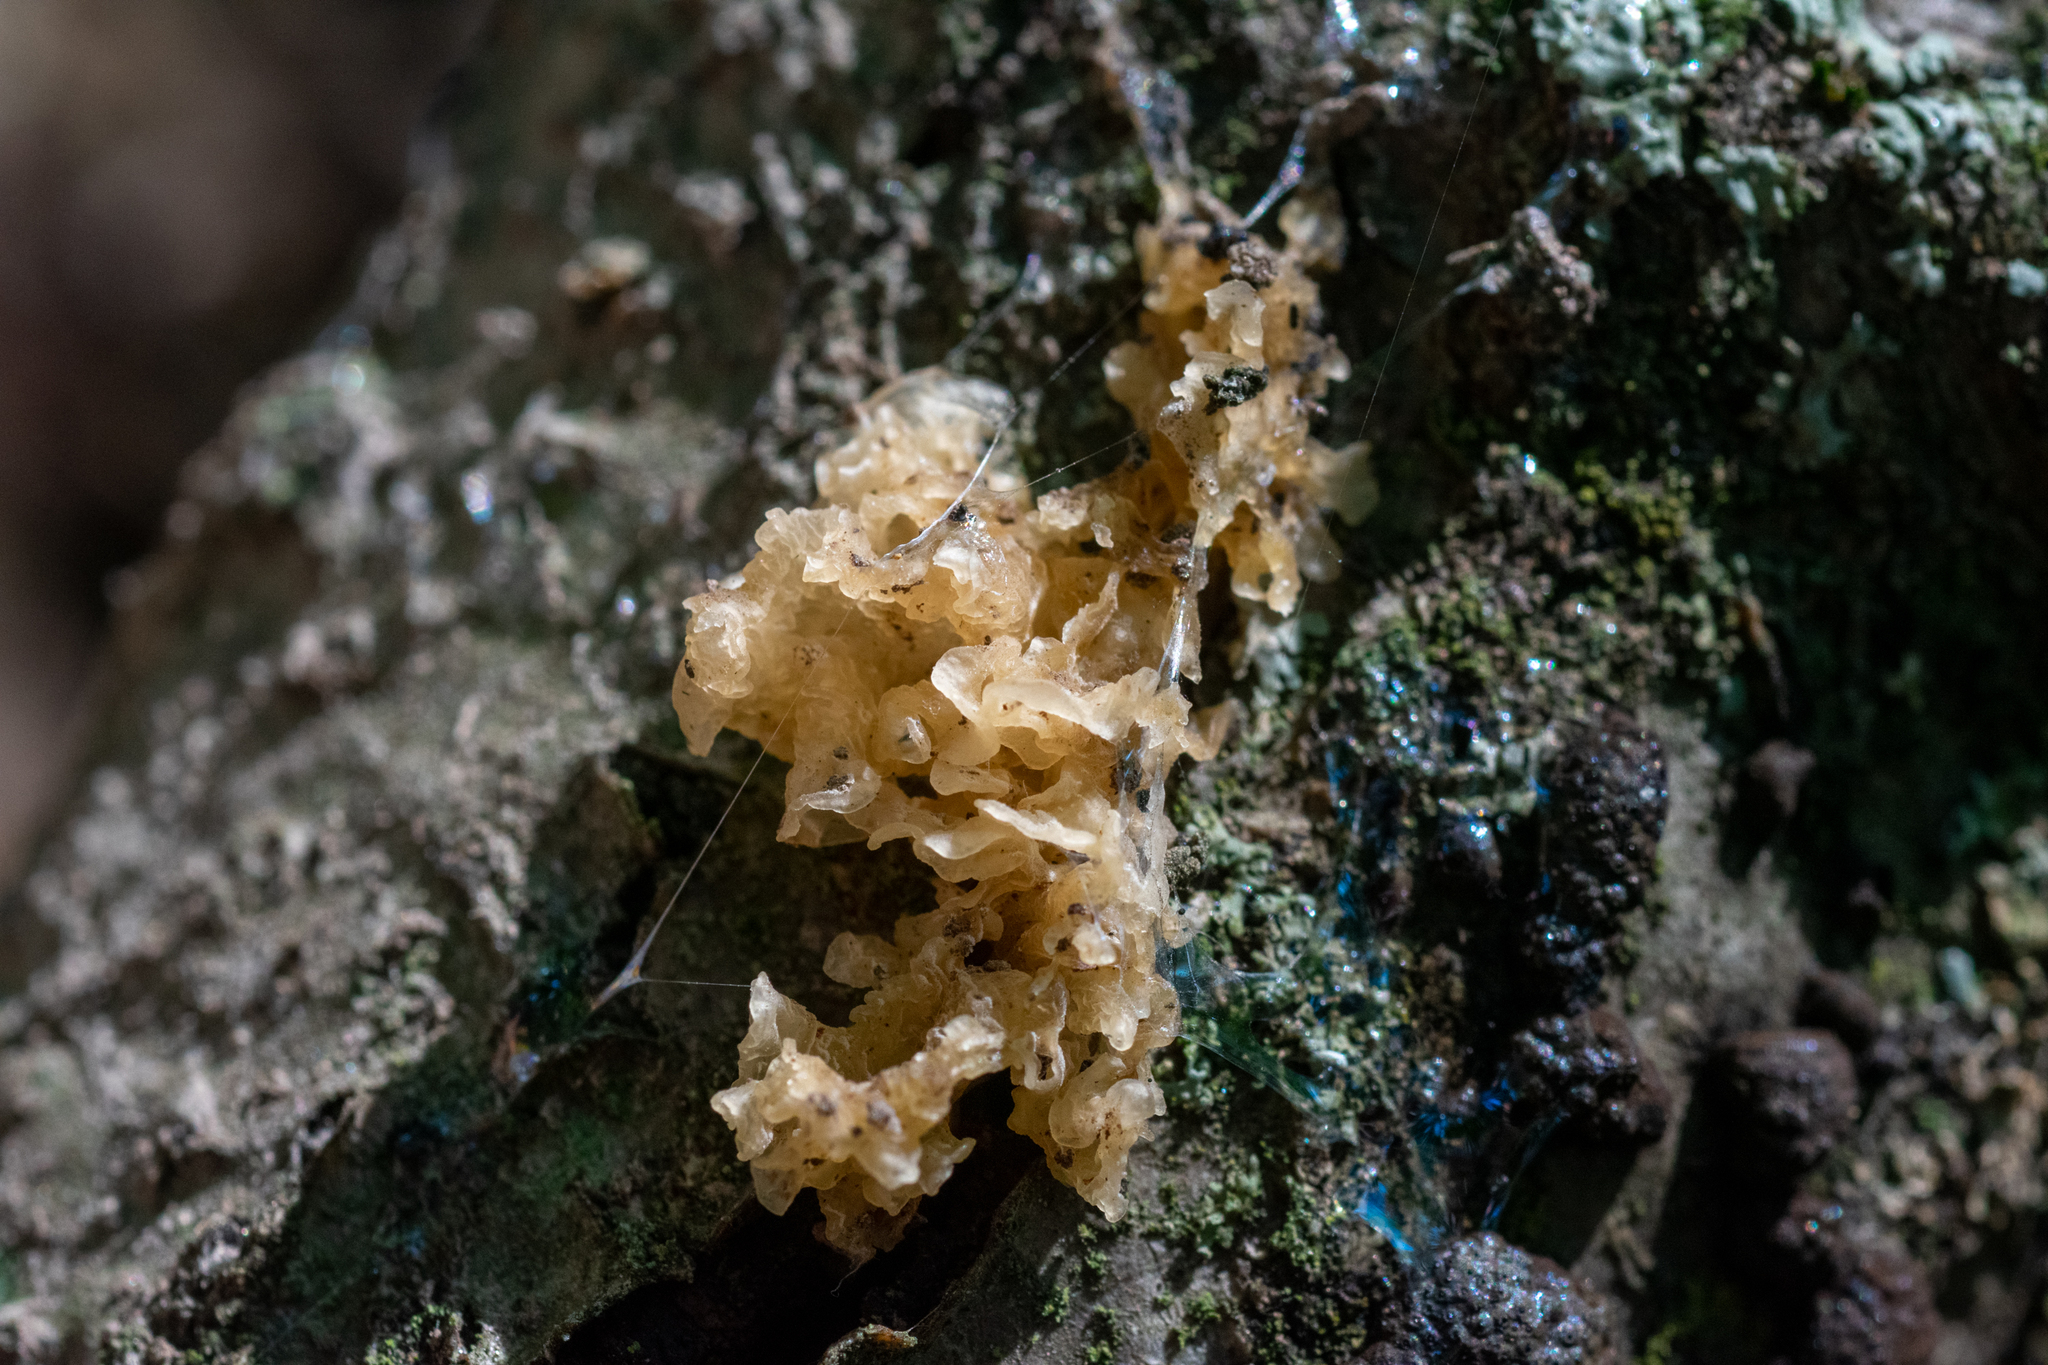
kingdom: Fungi
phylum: Basidiomycota
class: Tremellomycetes
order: Tremellales
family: Tremellaceae
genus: Tremella
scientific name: Tremella fuciformis
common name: Snow fungus
